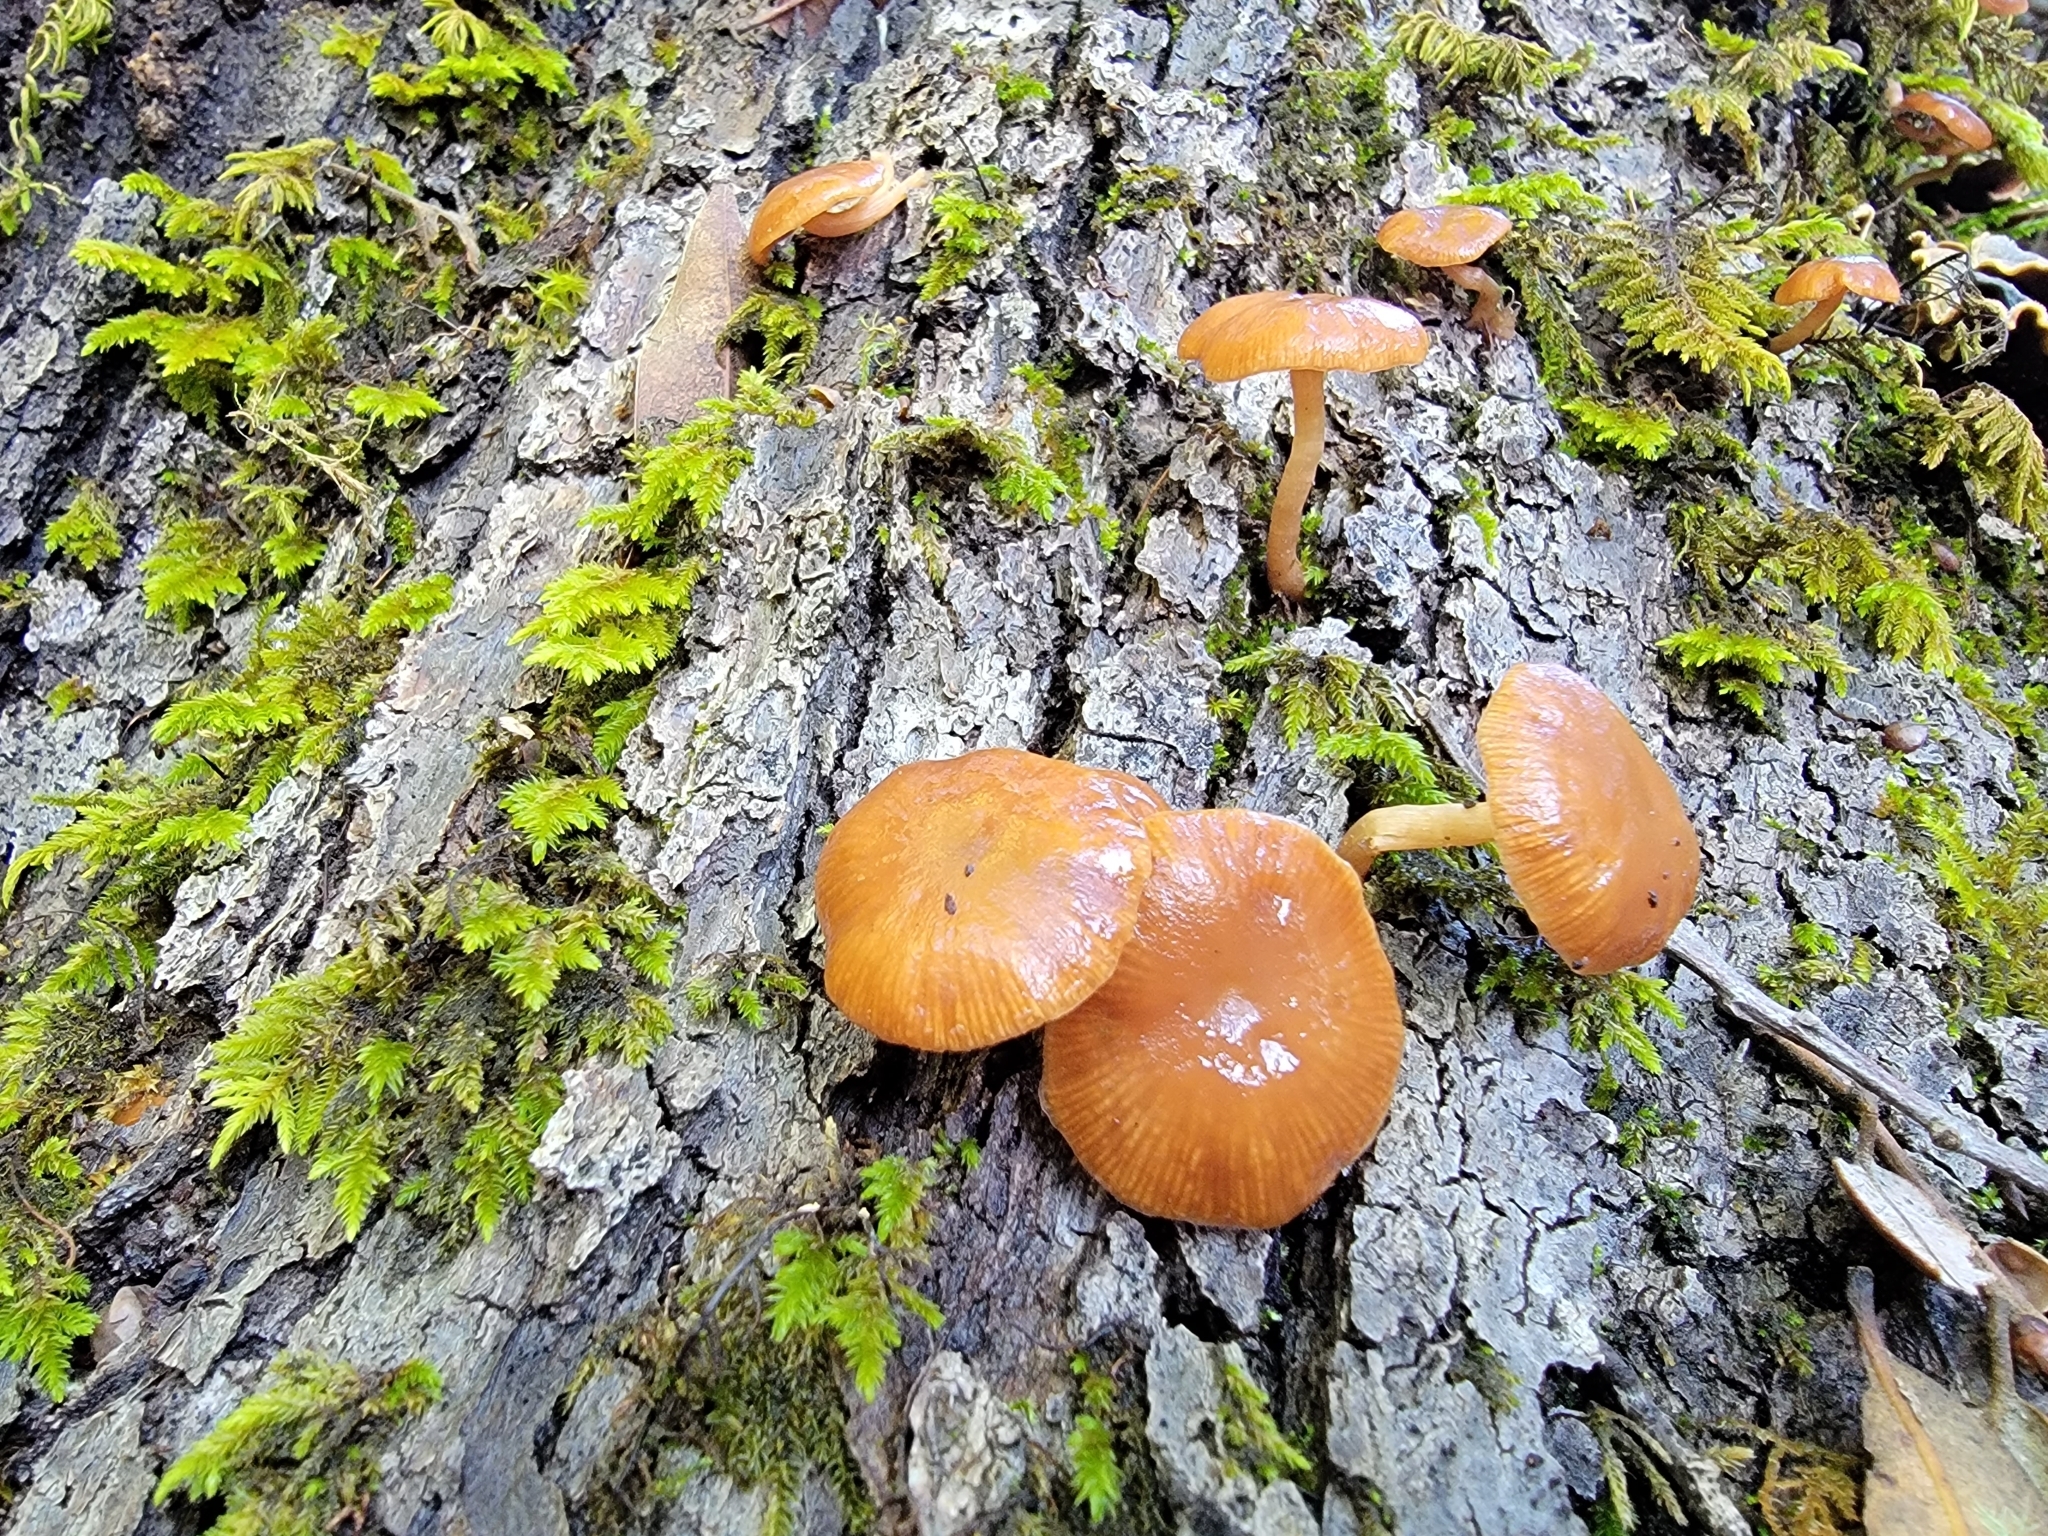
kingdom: Fungi
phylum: Basidiomycota
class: Agaricomycetes
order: Agaricales
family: Tubariaceae
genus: Tubaria
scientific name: Tubaria furfuracea
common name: Scurfy twiglet
